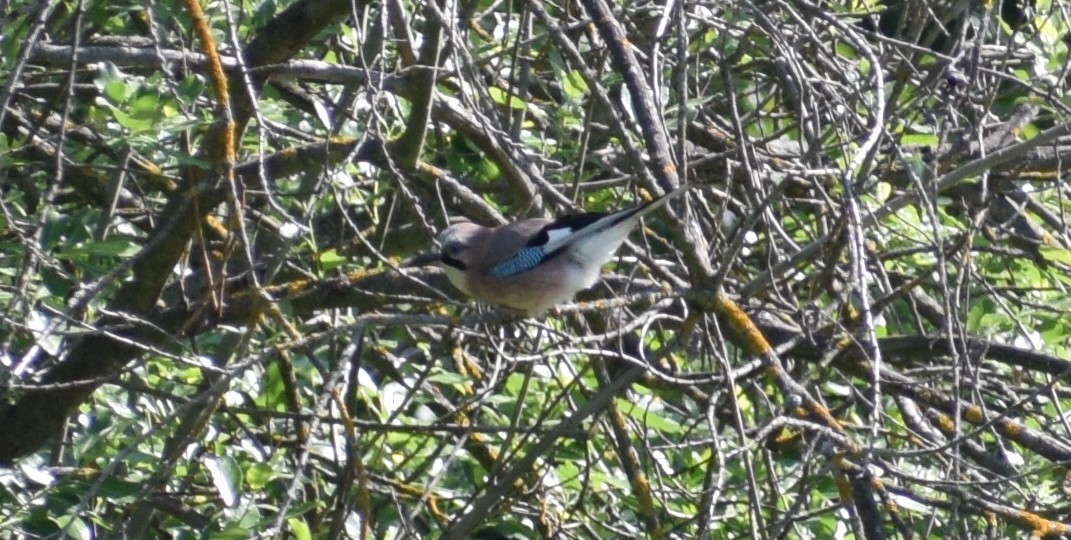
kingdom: Animalia
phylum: Chordata
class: Aves
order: Passeriformes
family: Corvidae
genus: Garrulus
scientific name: Garrulus glandarius
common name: Eurasian jay
